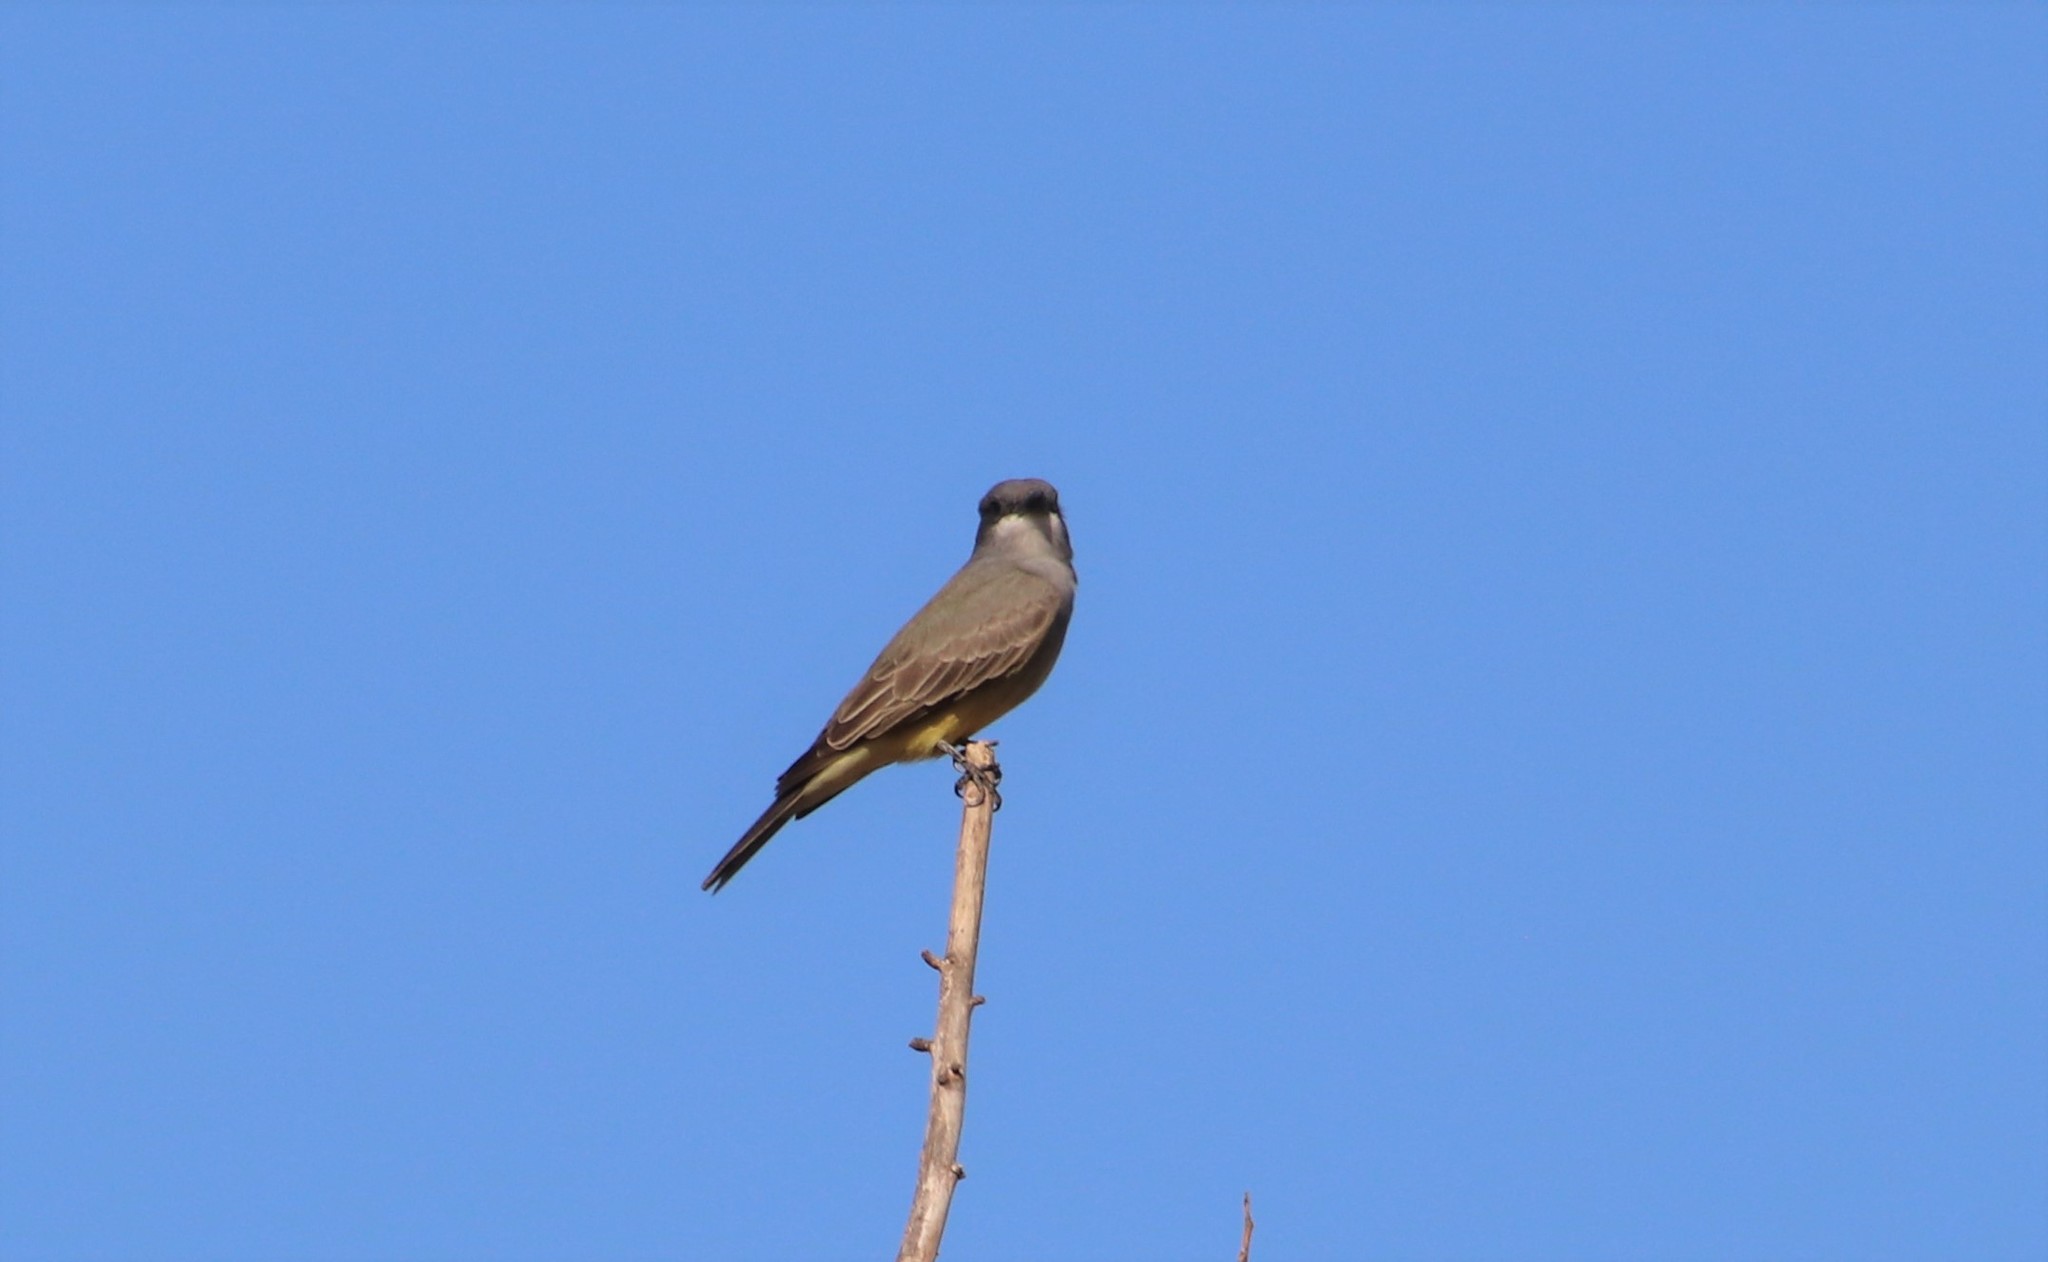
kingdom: Animalia
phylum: Chordata
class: Aves
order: Passeriformes
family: Tyrannidae
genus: Tyrannus
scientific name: Tyrannus vociferans
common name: Cassin's kingbird
